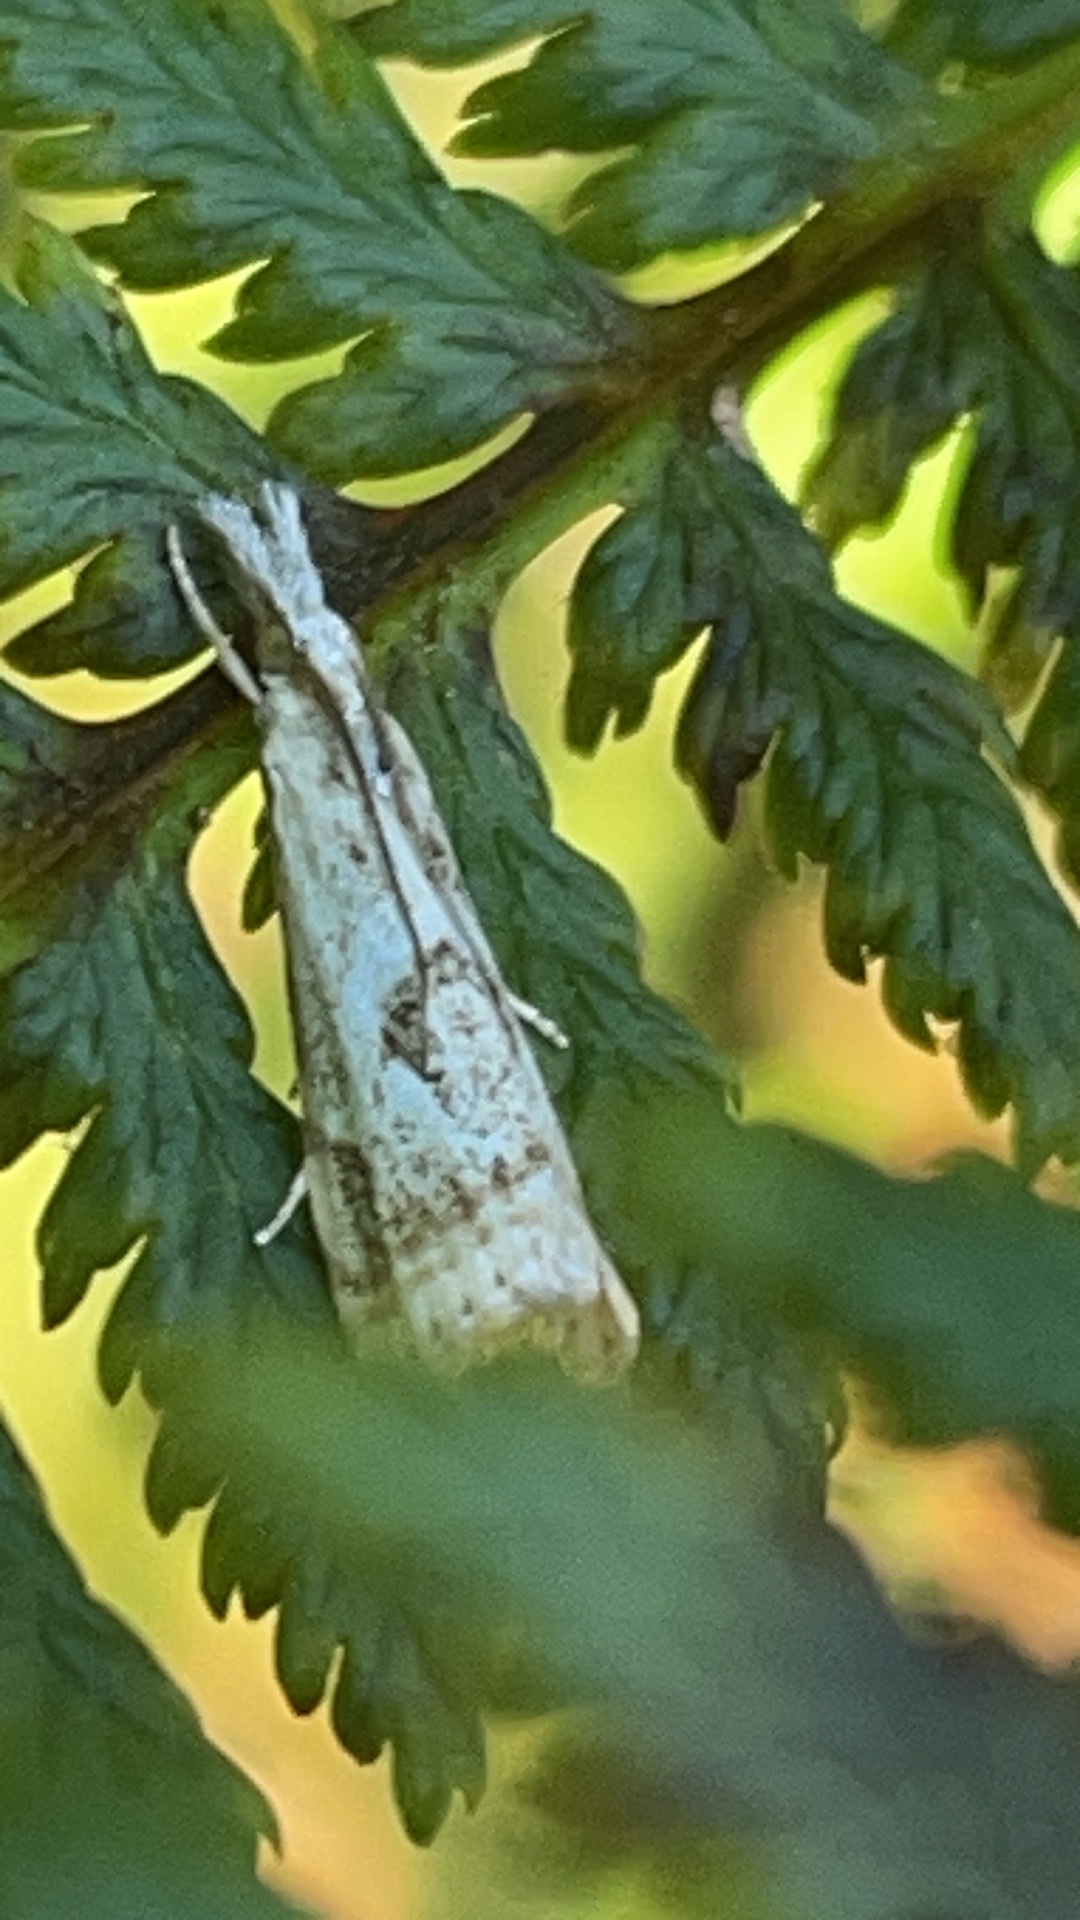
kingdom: Animalia
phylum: Arthropoda
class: Insecta
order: Lepidoptera
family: Crambidae
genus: Microcrambus
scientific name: Microcrambus elegans
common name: Elegant grass-veneer
